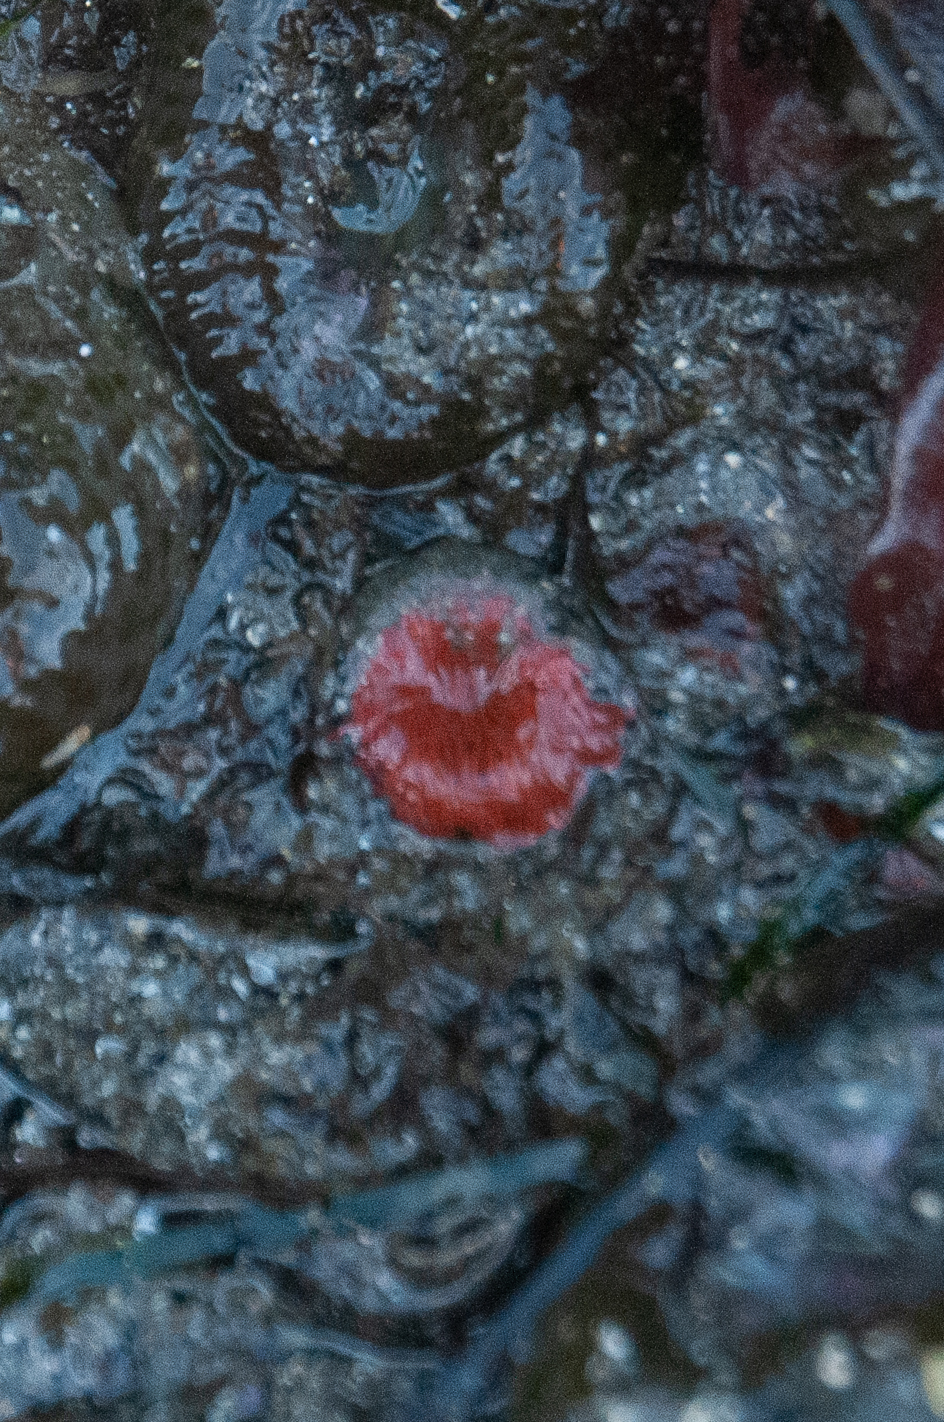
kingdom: Animalia
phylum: Cnidaria
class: Anthozoa
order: Actiniaria
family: Actiniidae
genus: Anthopleura
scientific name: Anthopleura artemisia
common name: Buried sea anemone
